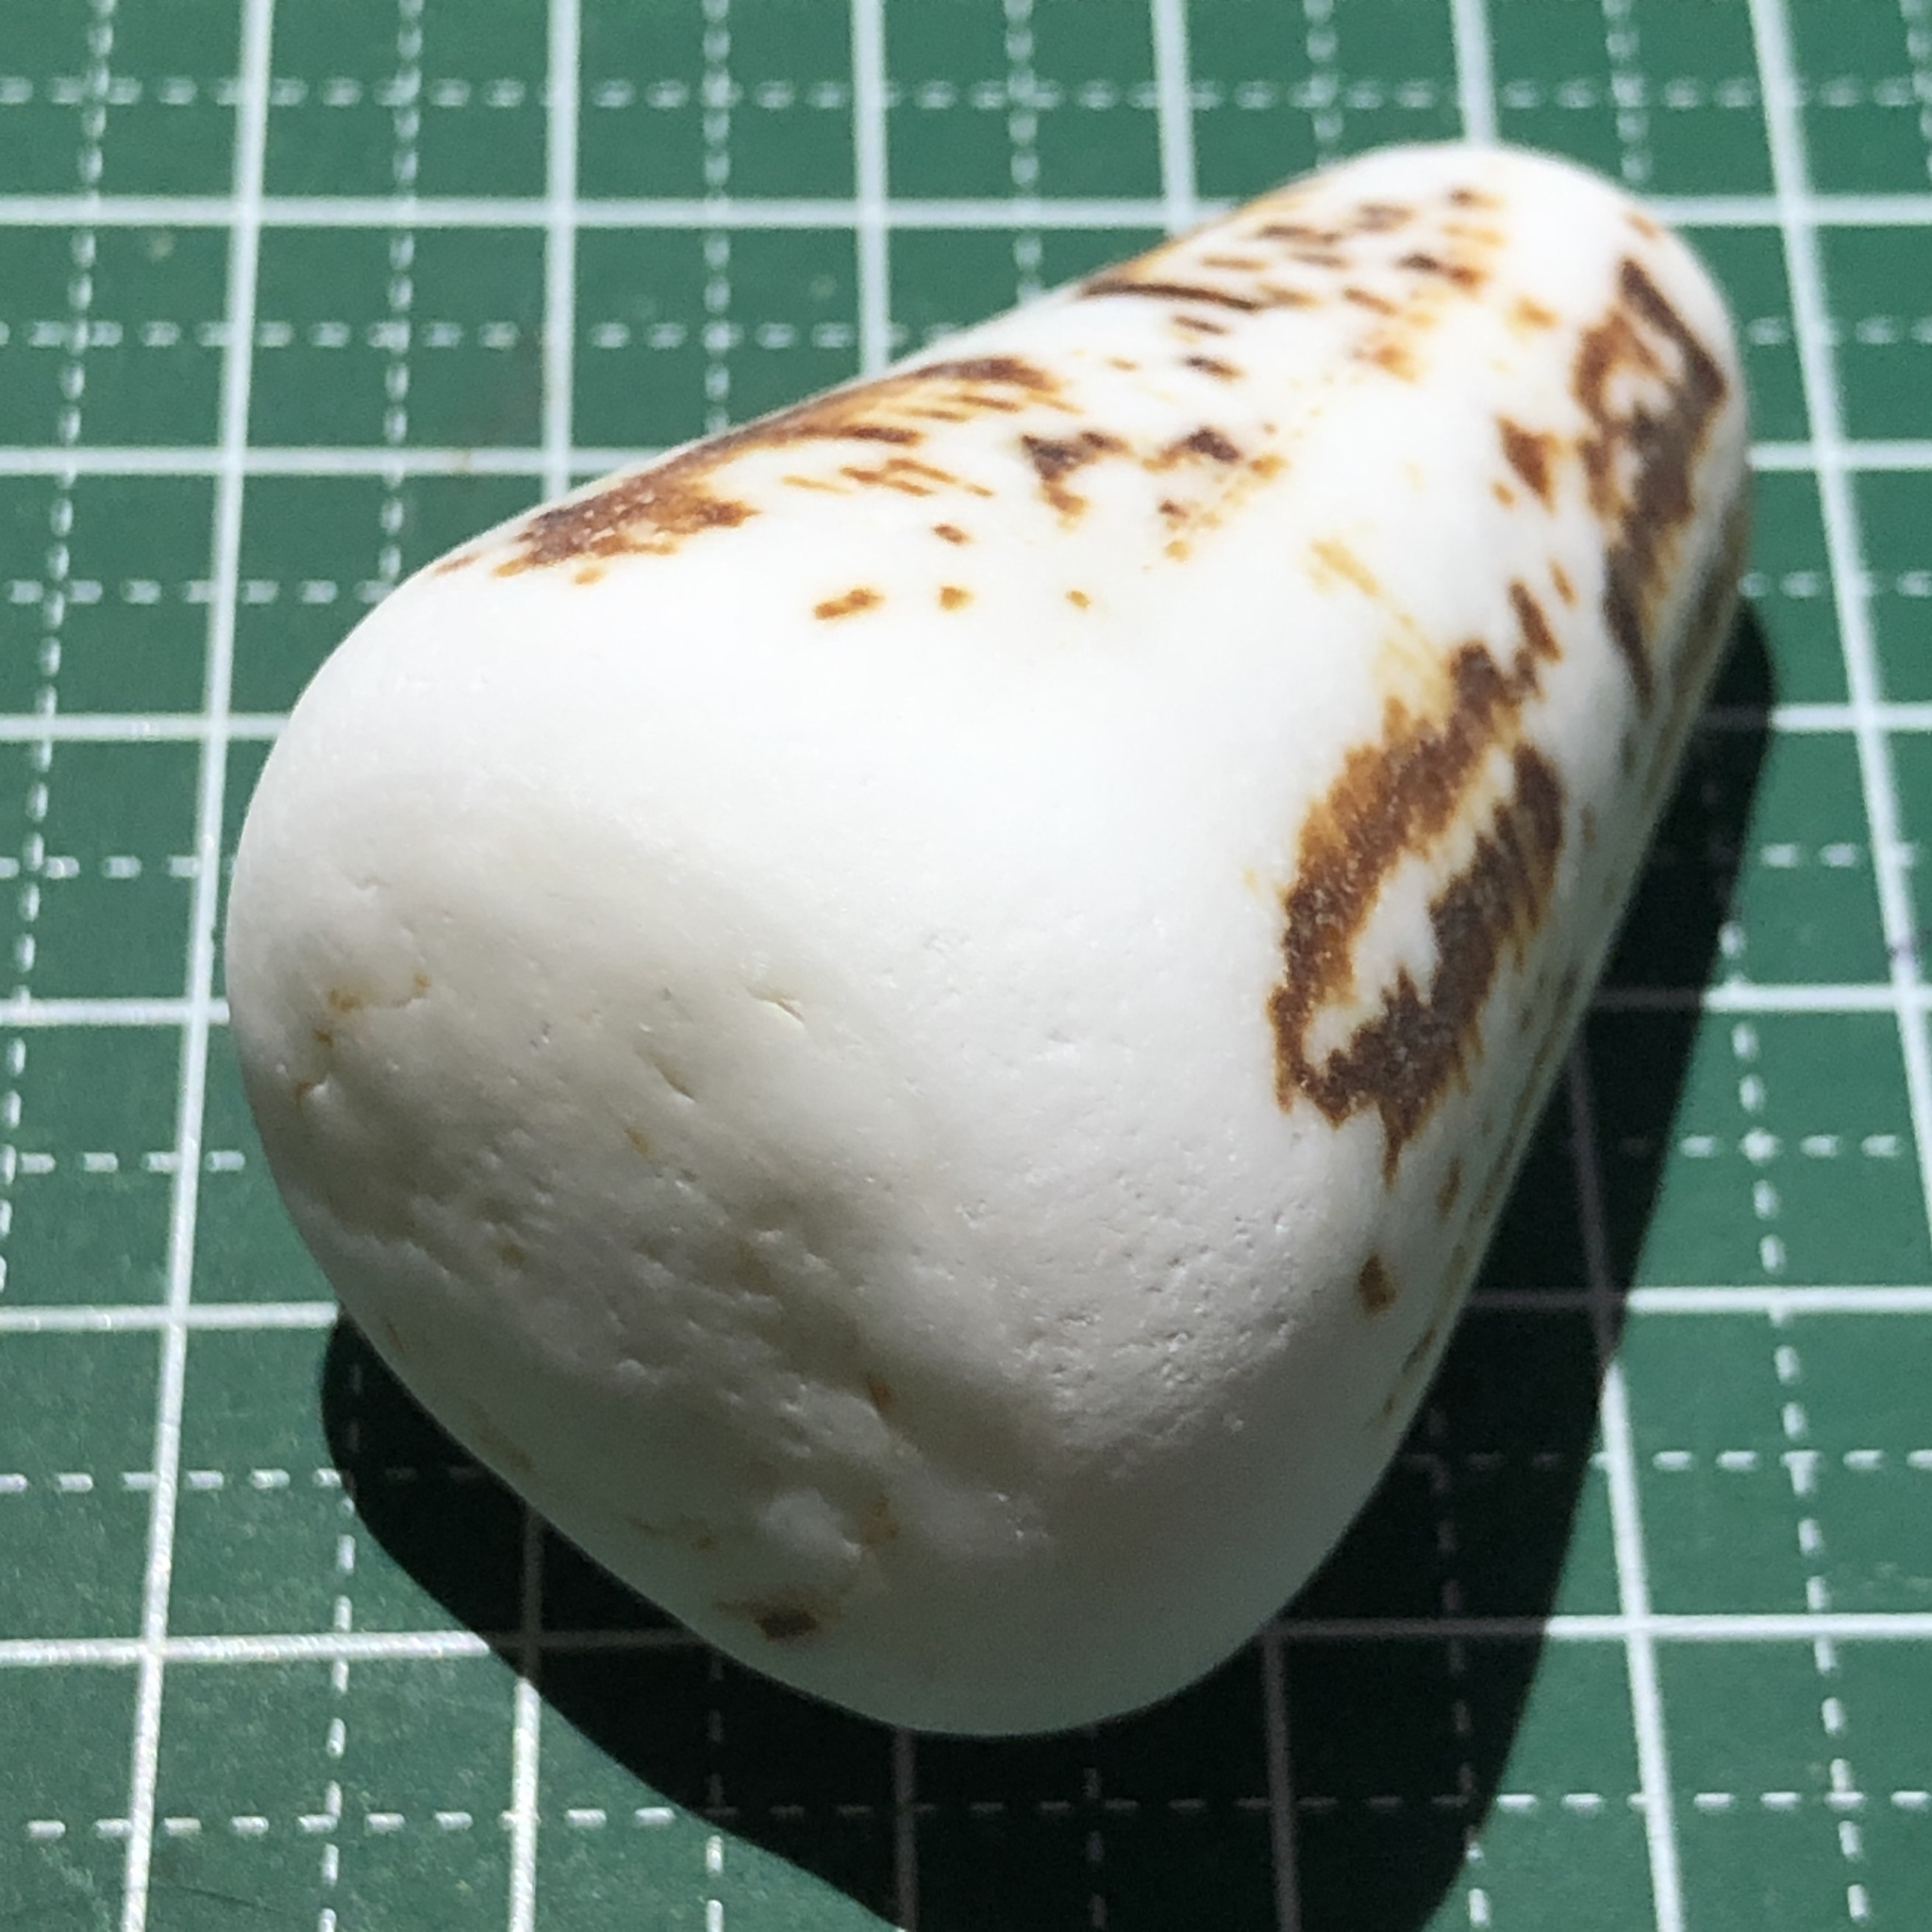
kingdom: Animalia
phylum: Mollusca
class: Gastropoda
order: Neogastropoda
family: Conidae
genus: Conus
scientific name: Conus imperialis
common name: Imperial cone
